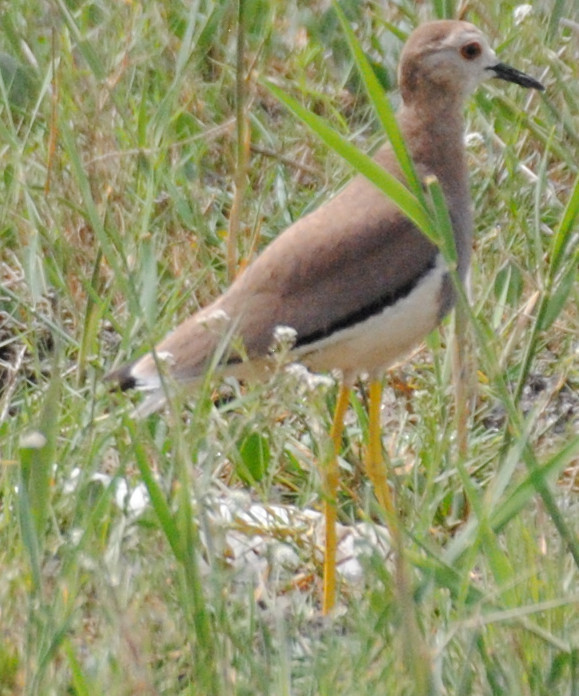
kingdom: Animalia
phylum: Chordata
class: Aves
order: Charadriiformes
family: Charadriidae
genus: Vanellus
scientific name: Vanellus leucurus
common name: White-tailed lapwing
